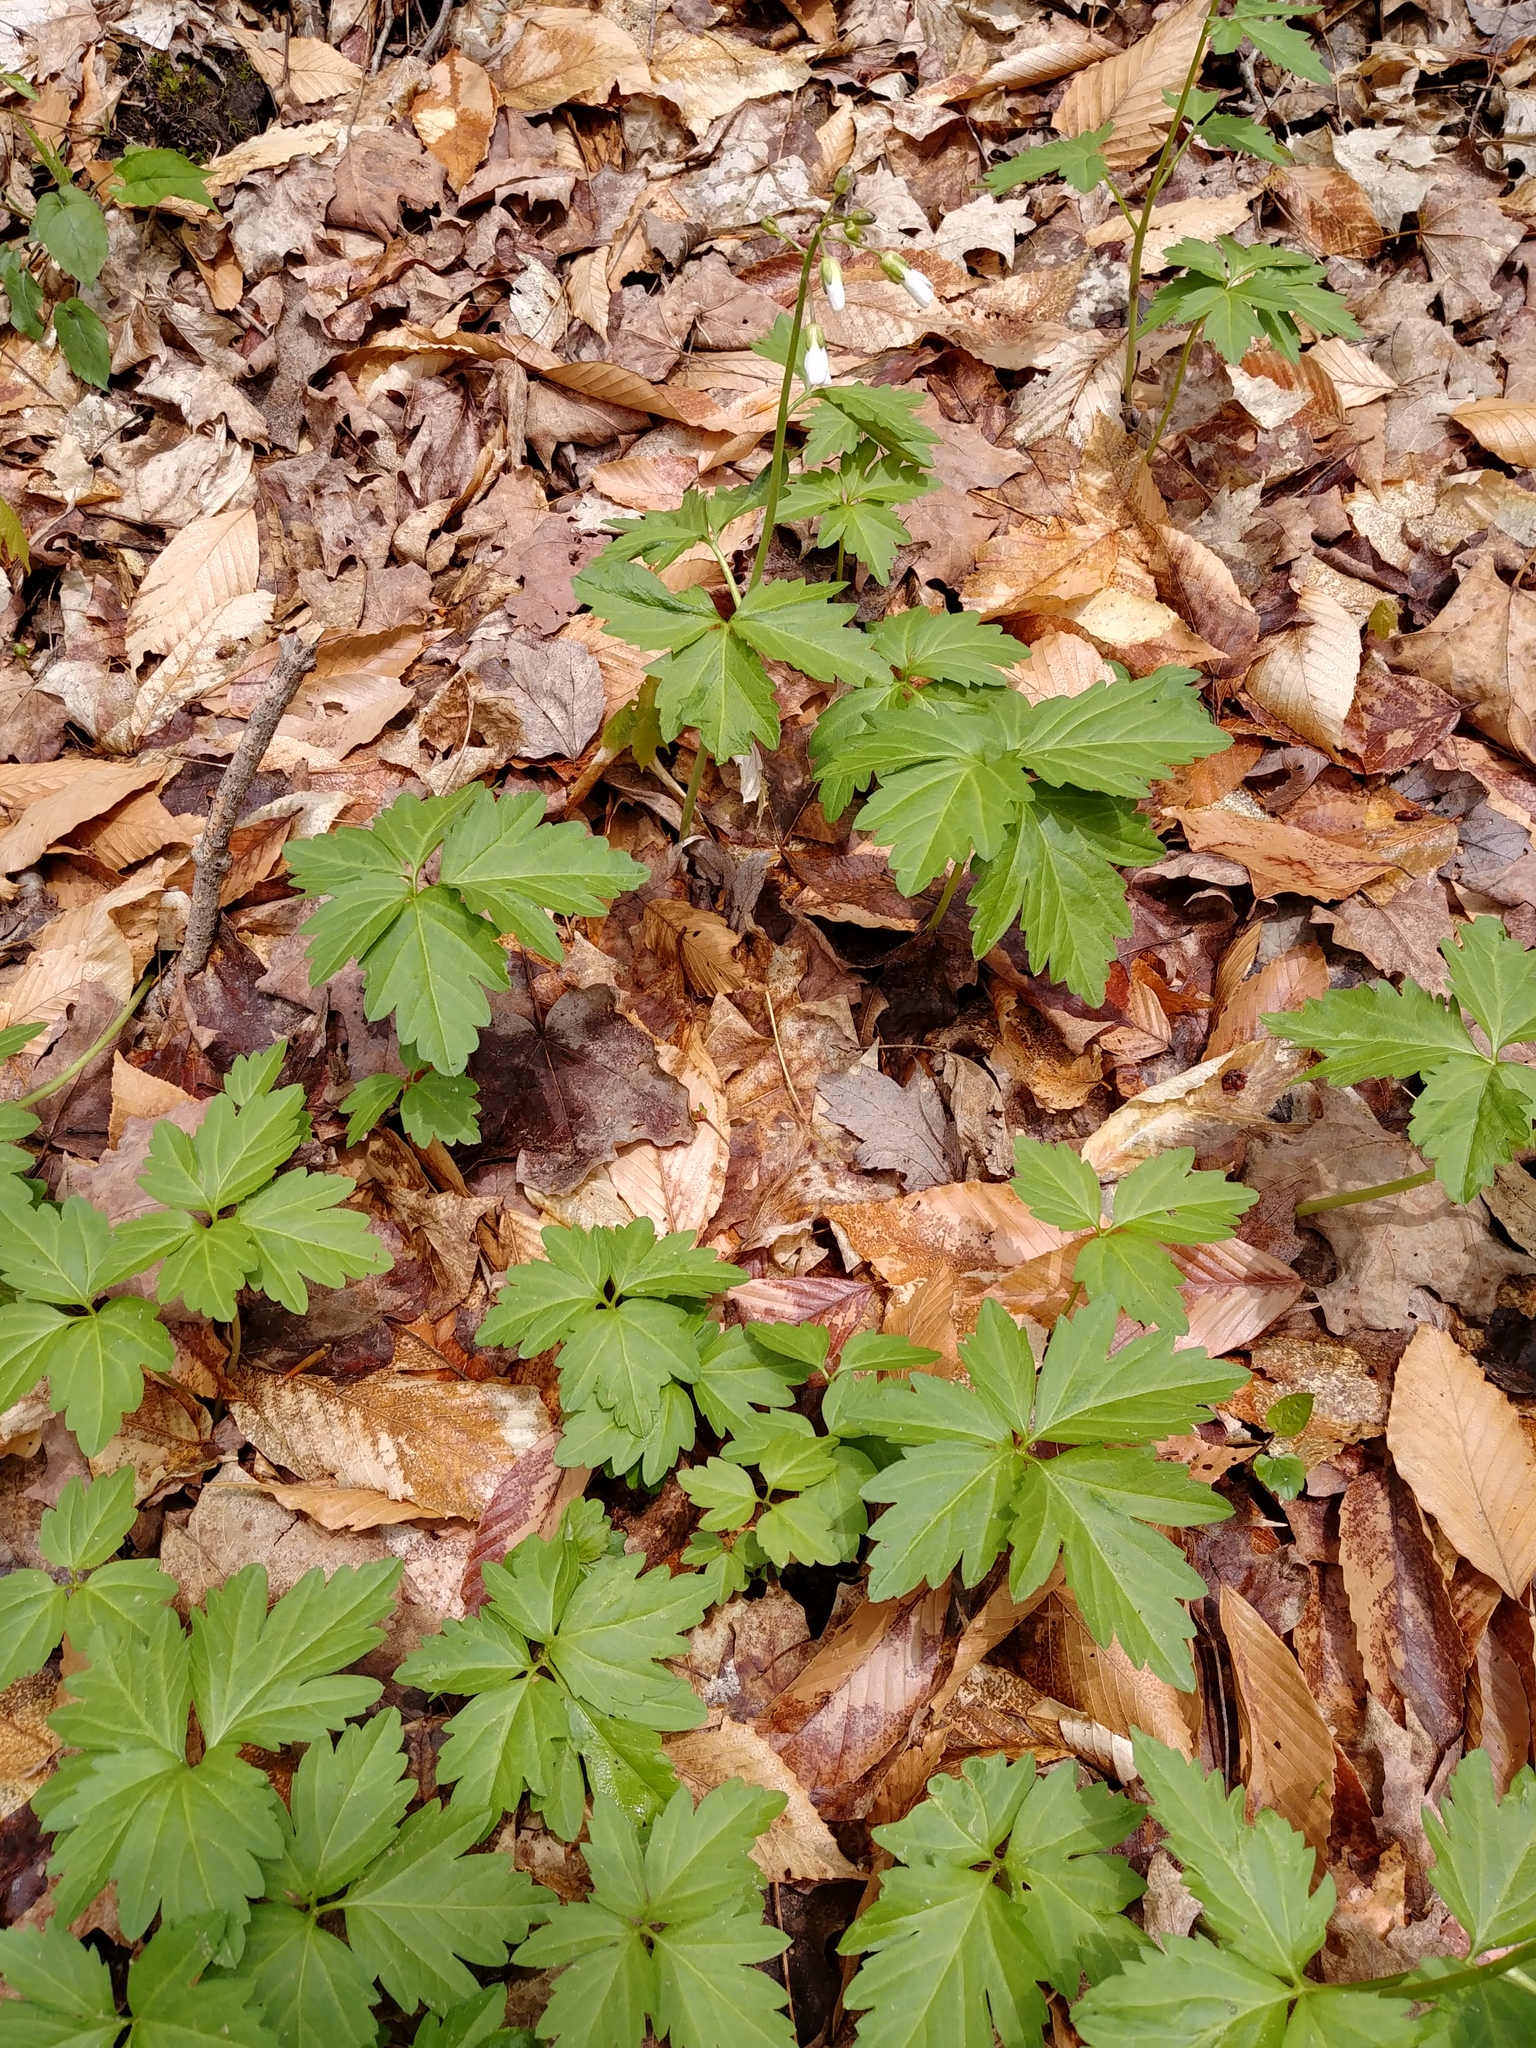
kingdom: Plantae
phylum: Tracheophyta
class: Magnoliopsida
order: Brassicales
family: Brassicaceae
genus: Cardamine
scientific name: Cardamine diphylla
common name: Broad-leaved toothwort
